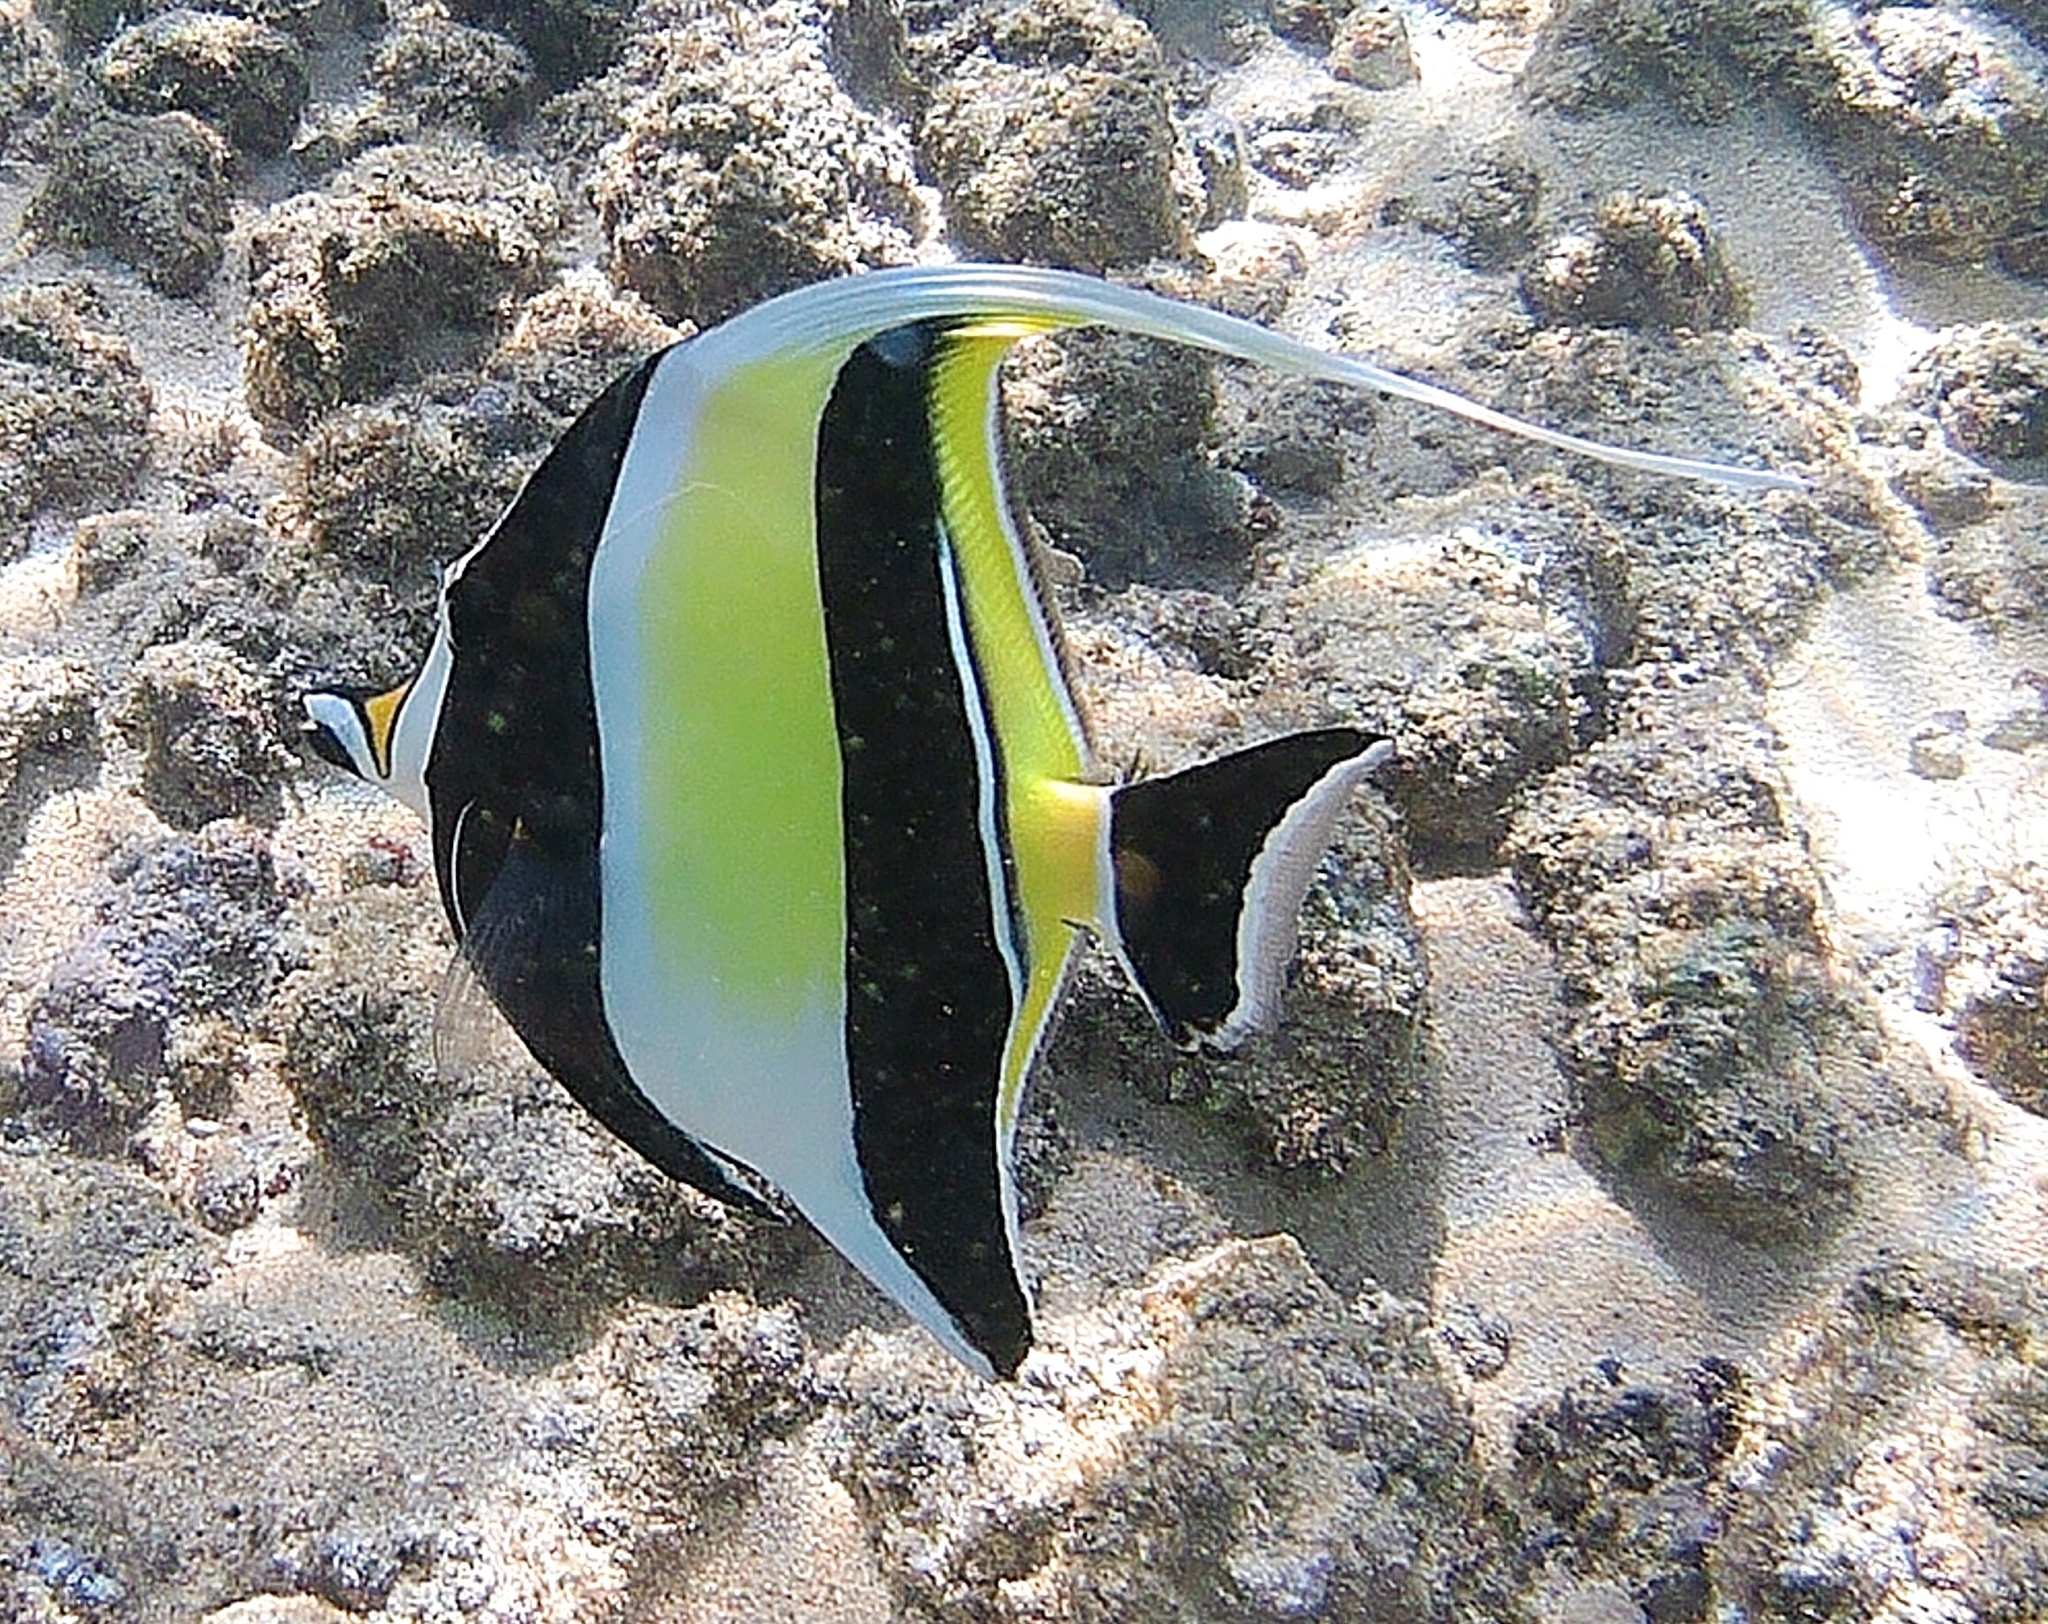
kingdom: Animalia
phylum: Chordata
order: Perciformes
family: Zanclidae
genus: Zanclus
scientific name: Zanclus cornutus
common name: Moorish idol
